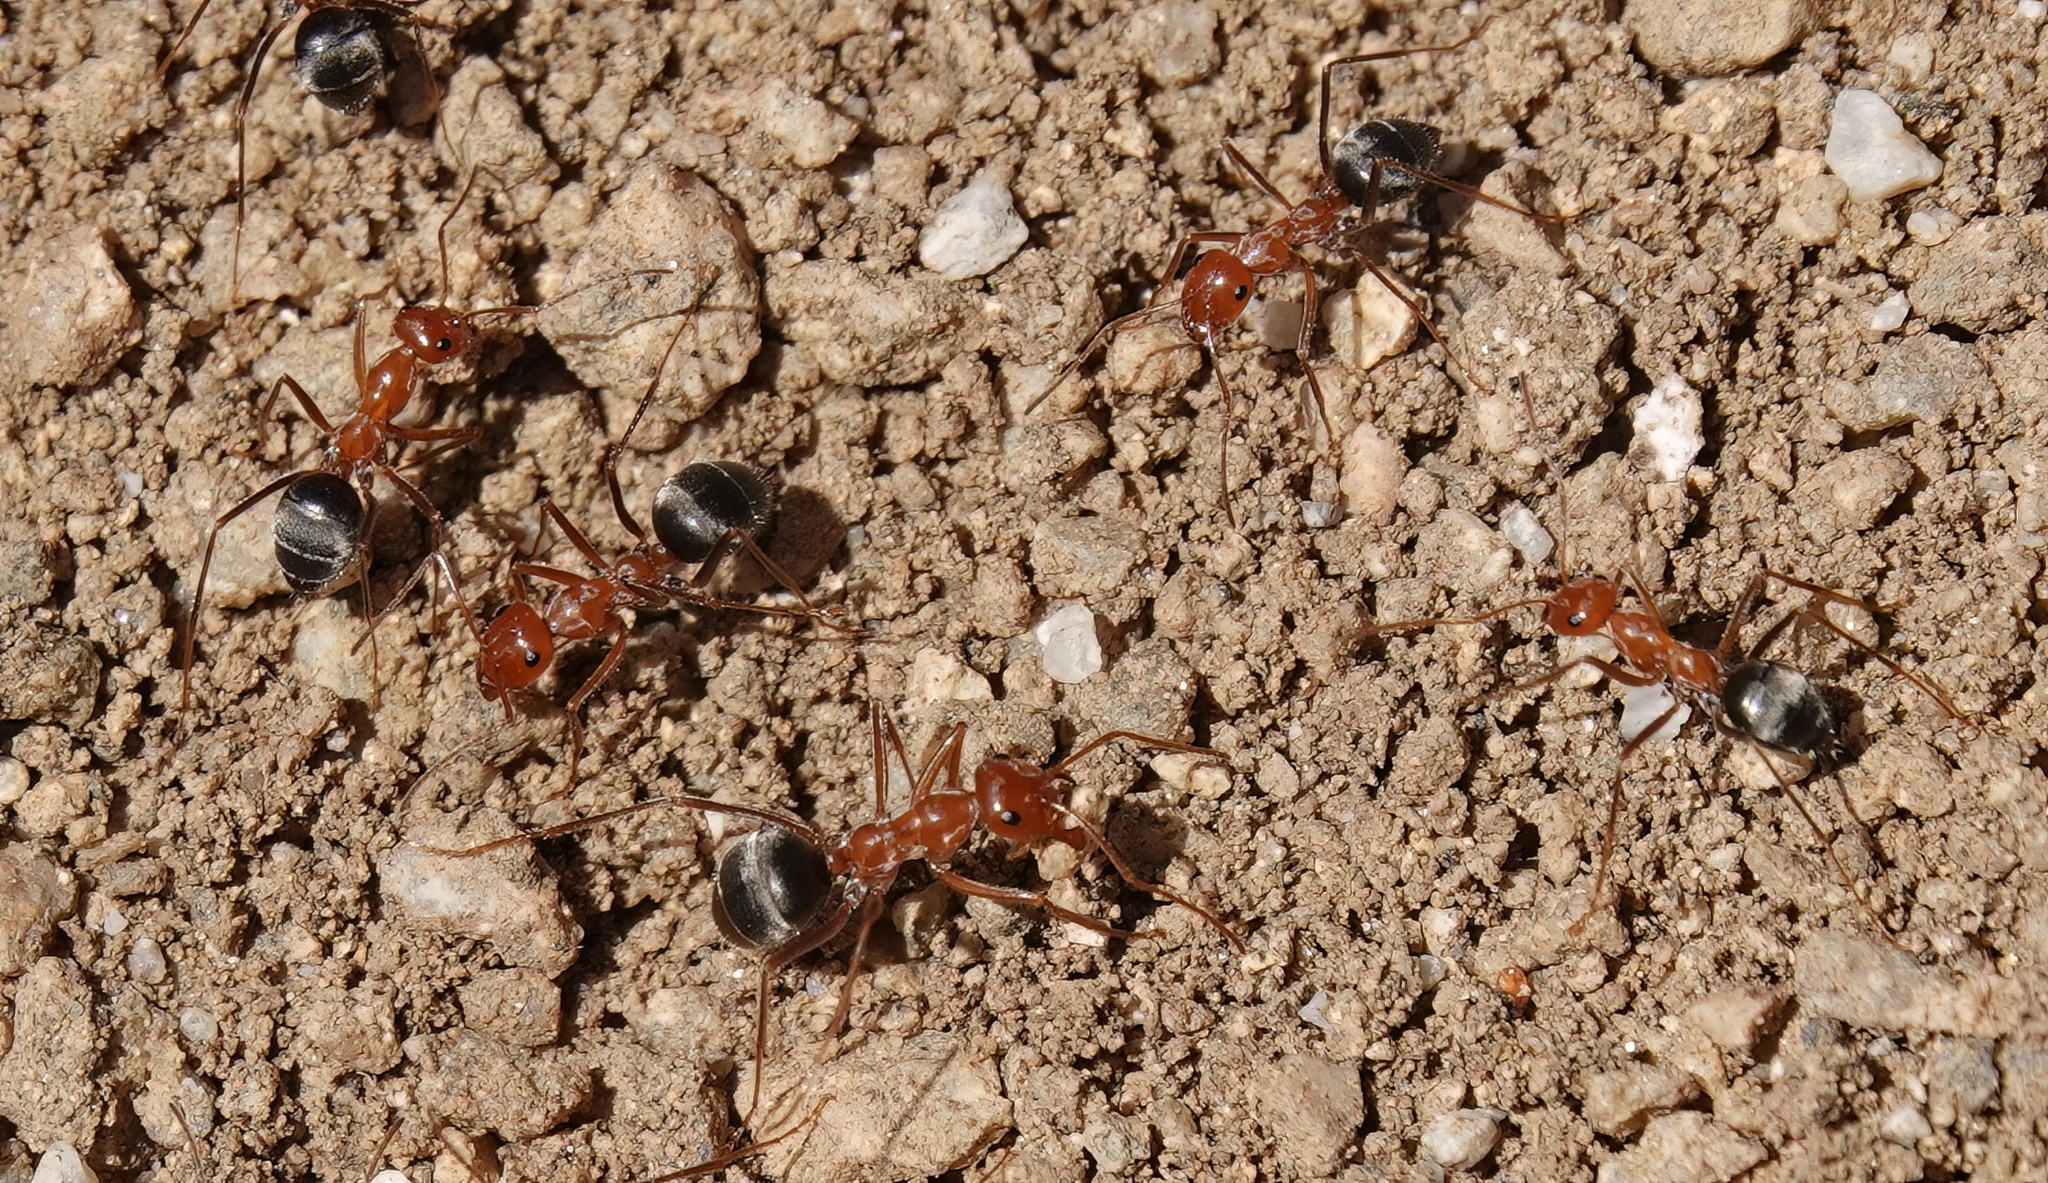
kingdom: Animalia
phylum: Arthropoda
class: Insecta
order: Hymenoptera
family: Formicidae
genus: Myrmecocystus
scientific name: Myrmecocystus semirufus
